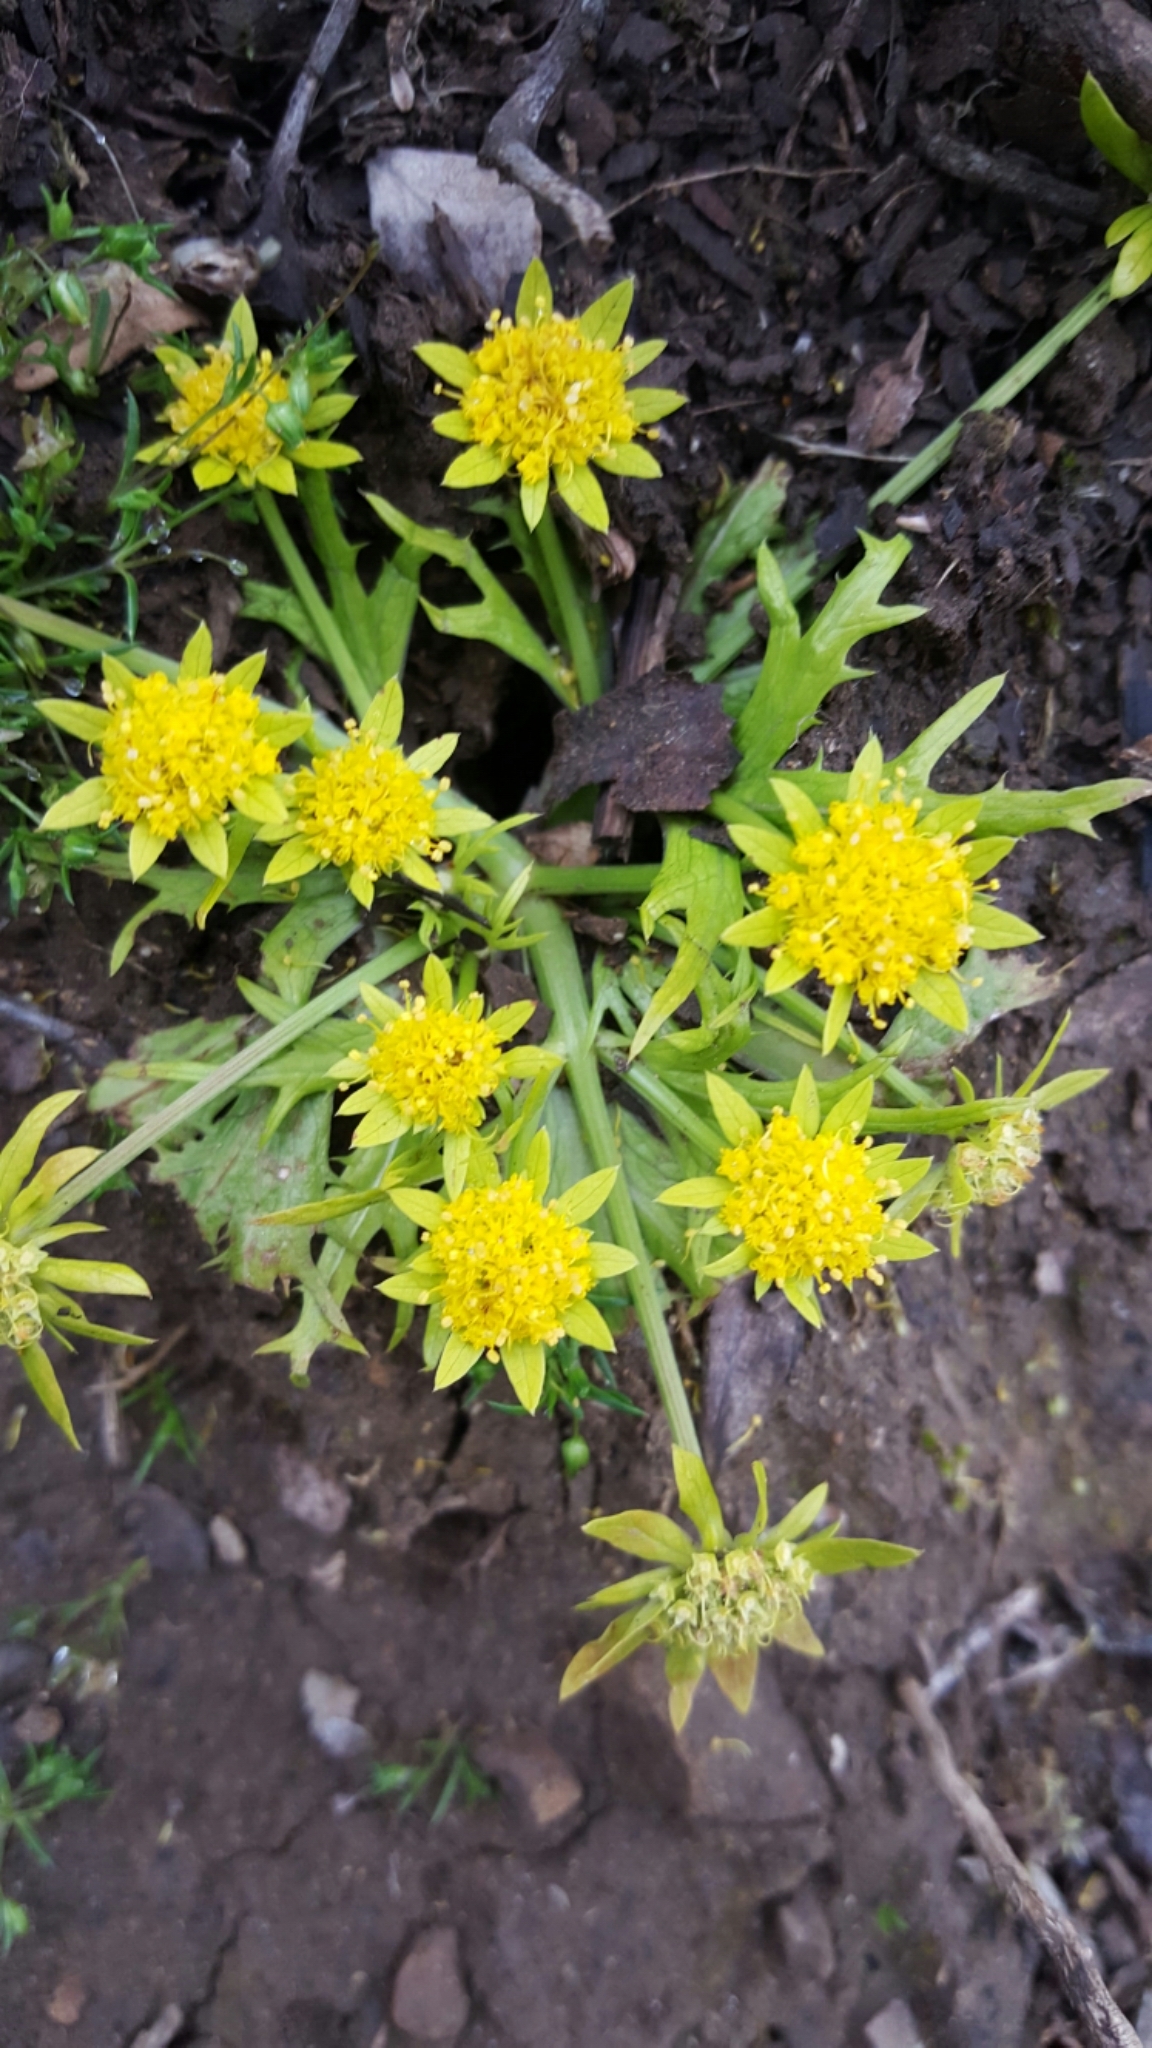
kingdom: Plantae
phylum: Tracheophyta
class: Magnoliopsida
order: Apiales
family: Apiaceae
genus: Sanicula
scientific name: Sanicula arctopoides
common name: Footsteps-of-spring
